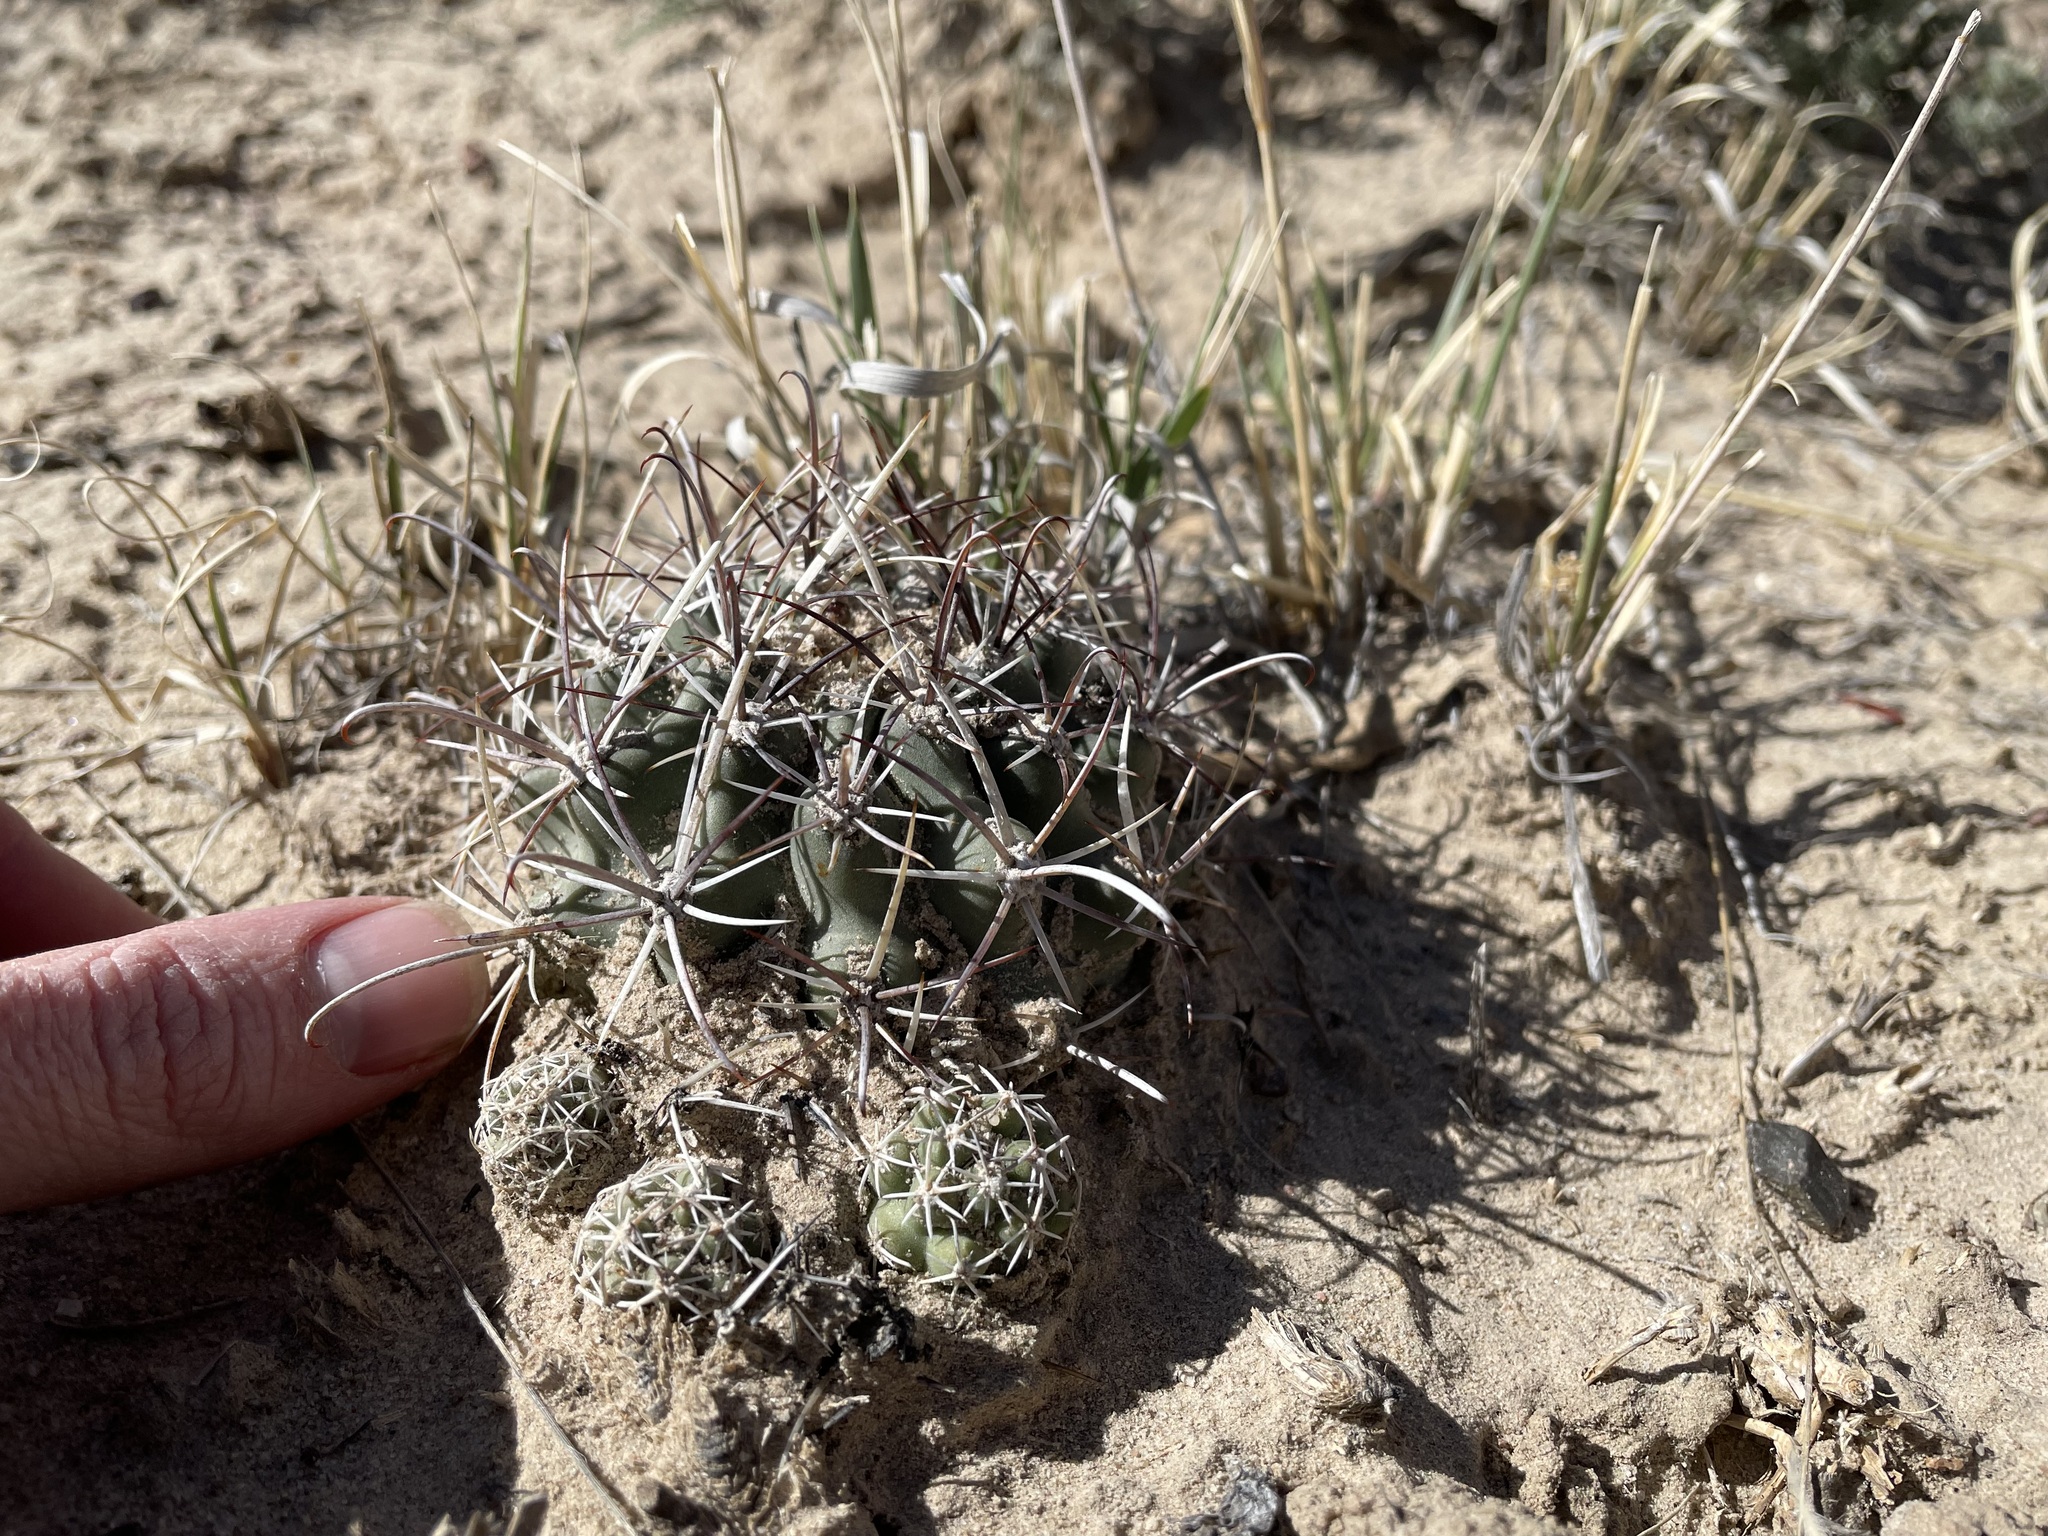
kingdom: Plantae
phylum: Tracheophyta
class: Magnoliopsida
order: Caryophyllales
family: Cactaceae
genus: Sclerocactus
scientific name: Sclerocactus cloverae
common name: Clover's eagle-claw cactus
